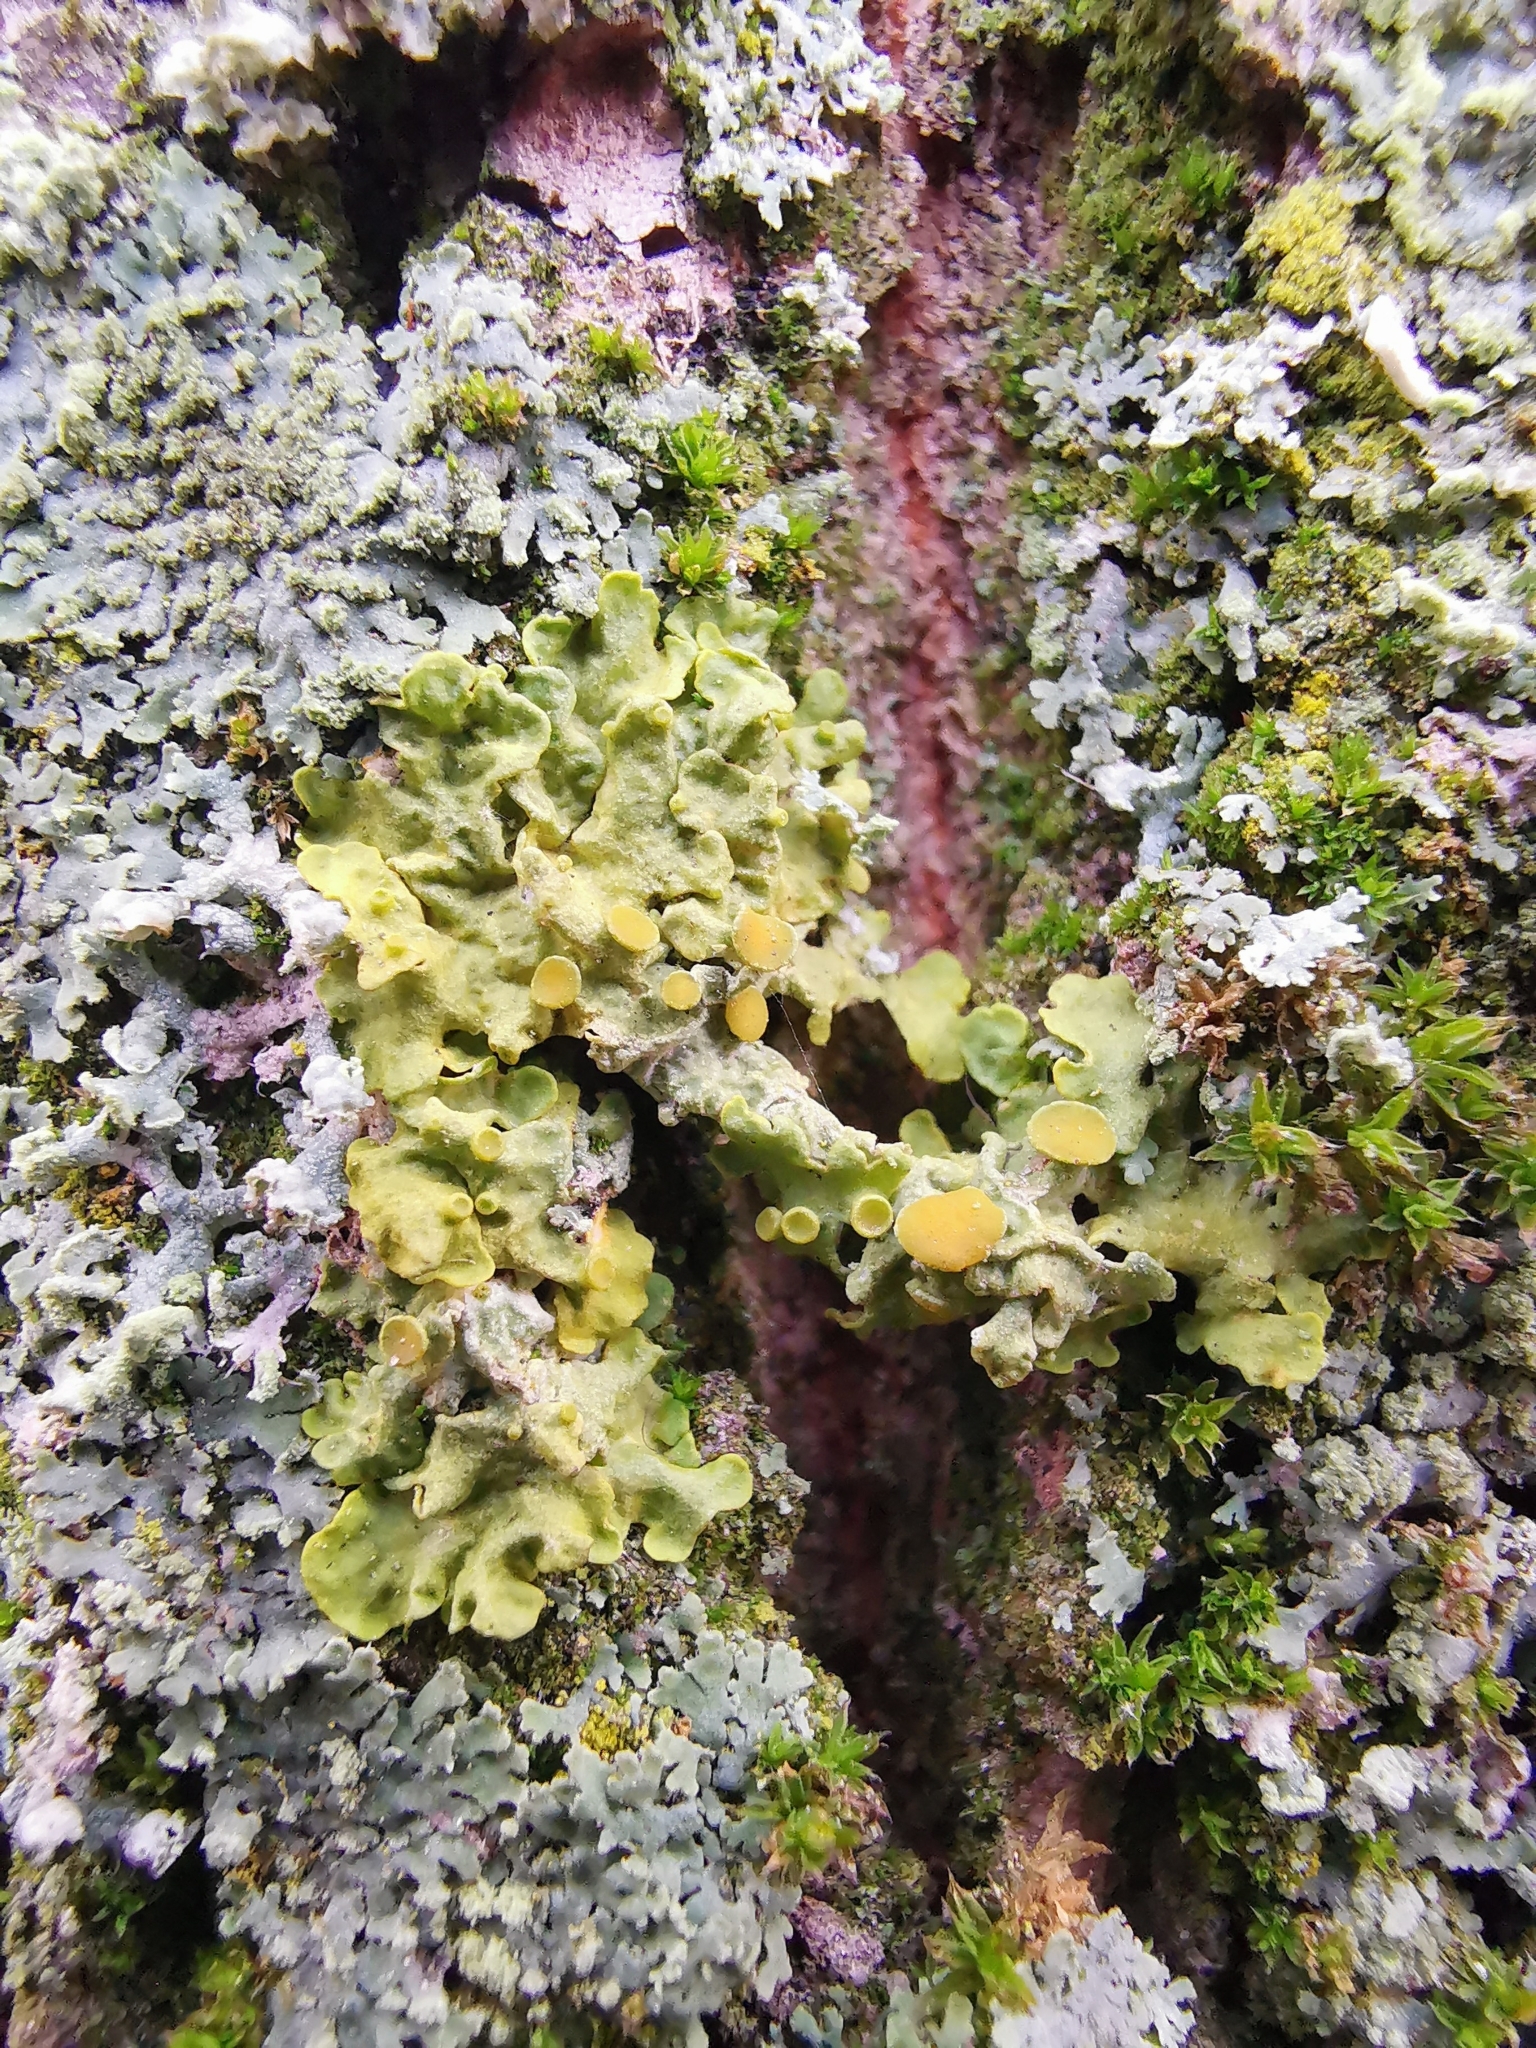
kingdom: Fungi
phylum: Ascomycota
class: Lecanoromycetes
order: Teloschistales
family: Teloschistaceae
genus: Xanthoria
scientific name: Xanthoria parietina
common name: Common orange lichen
